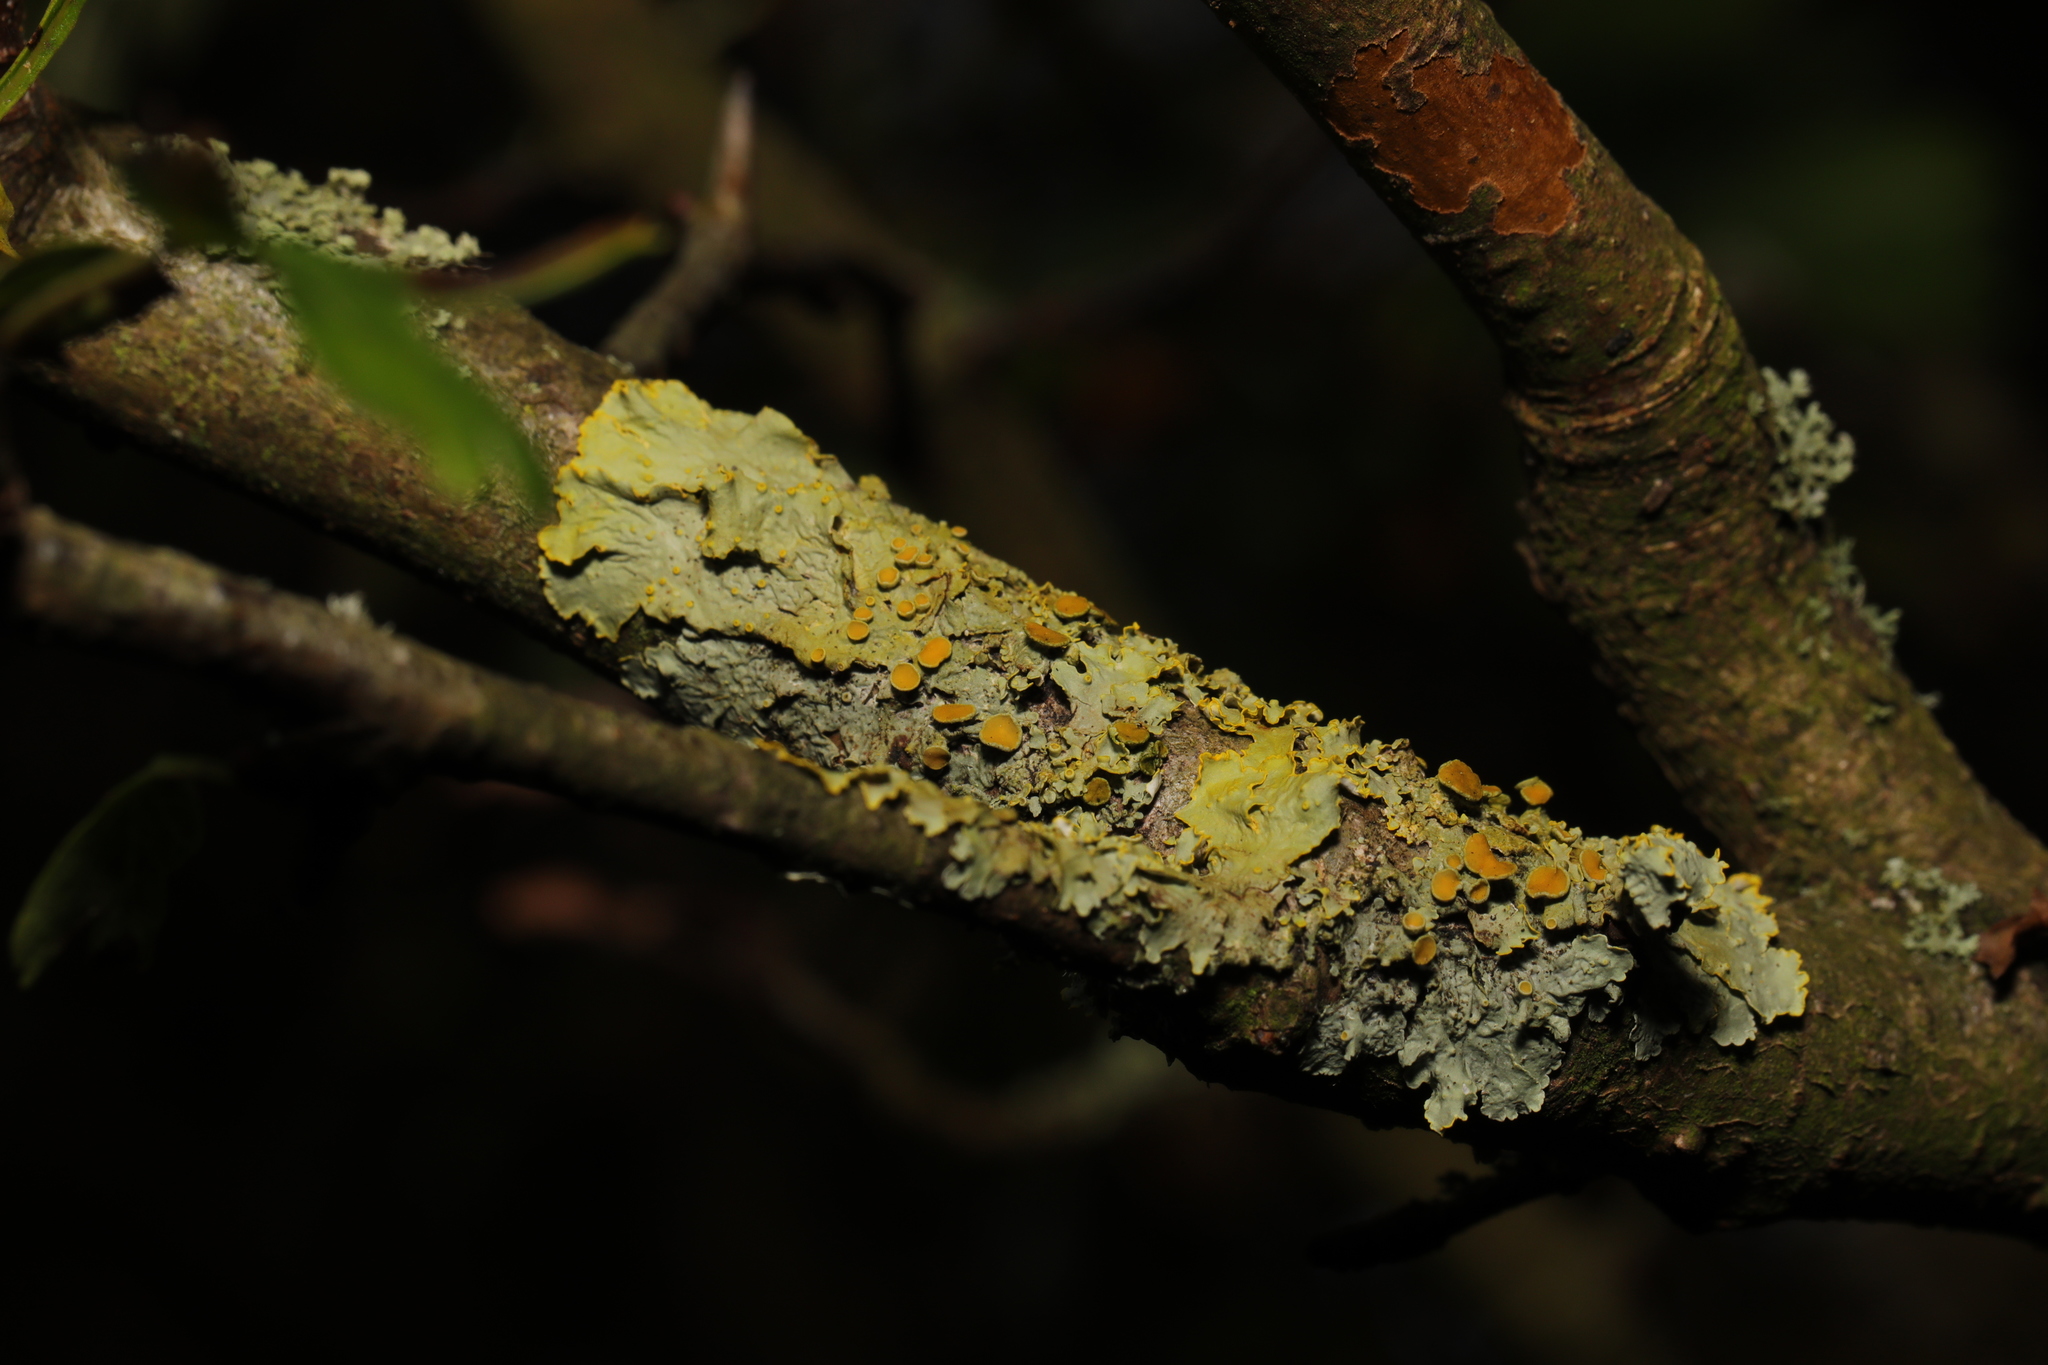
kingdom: Fungi
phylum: Ascomycota
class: Lecanoromycetes
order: Teloschistales
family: Teloschistaceae
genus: Xanthoria
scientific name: Xanthoria parietina
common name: Common orange lichen
